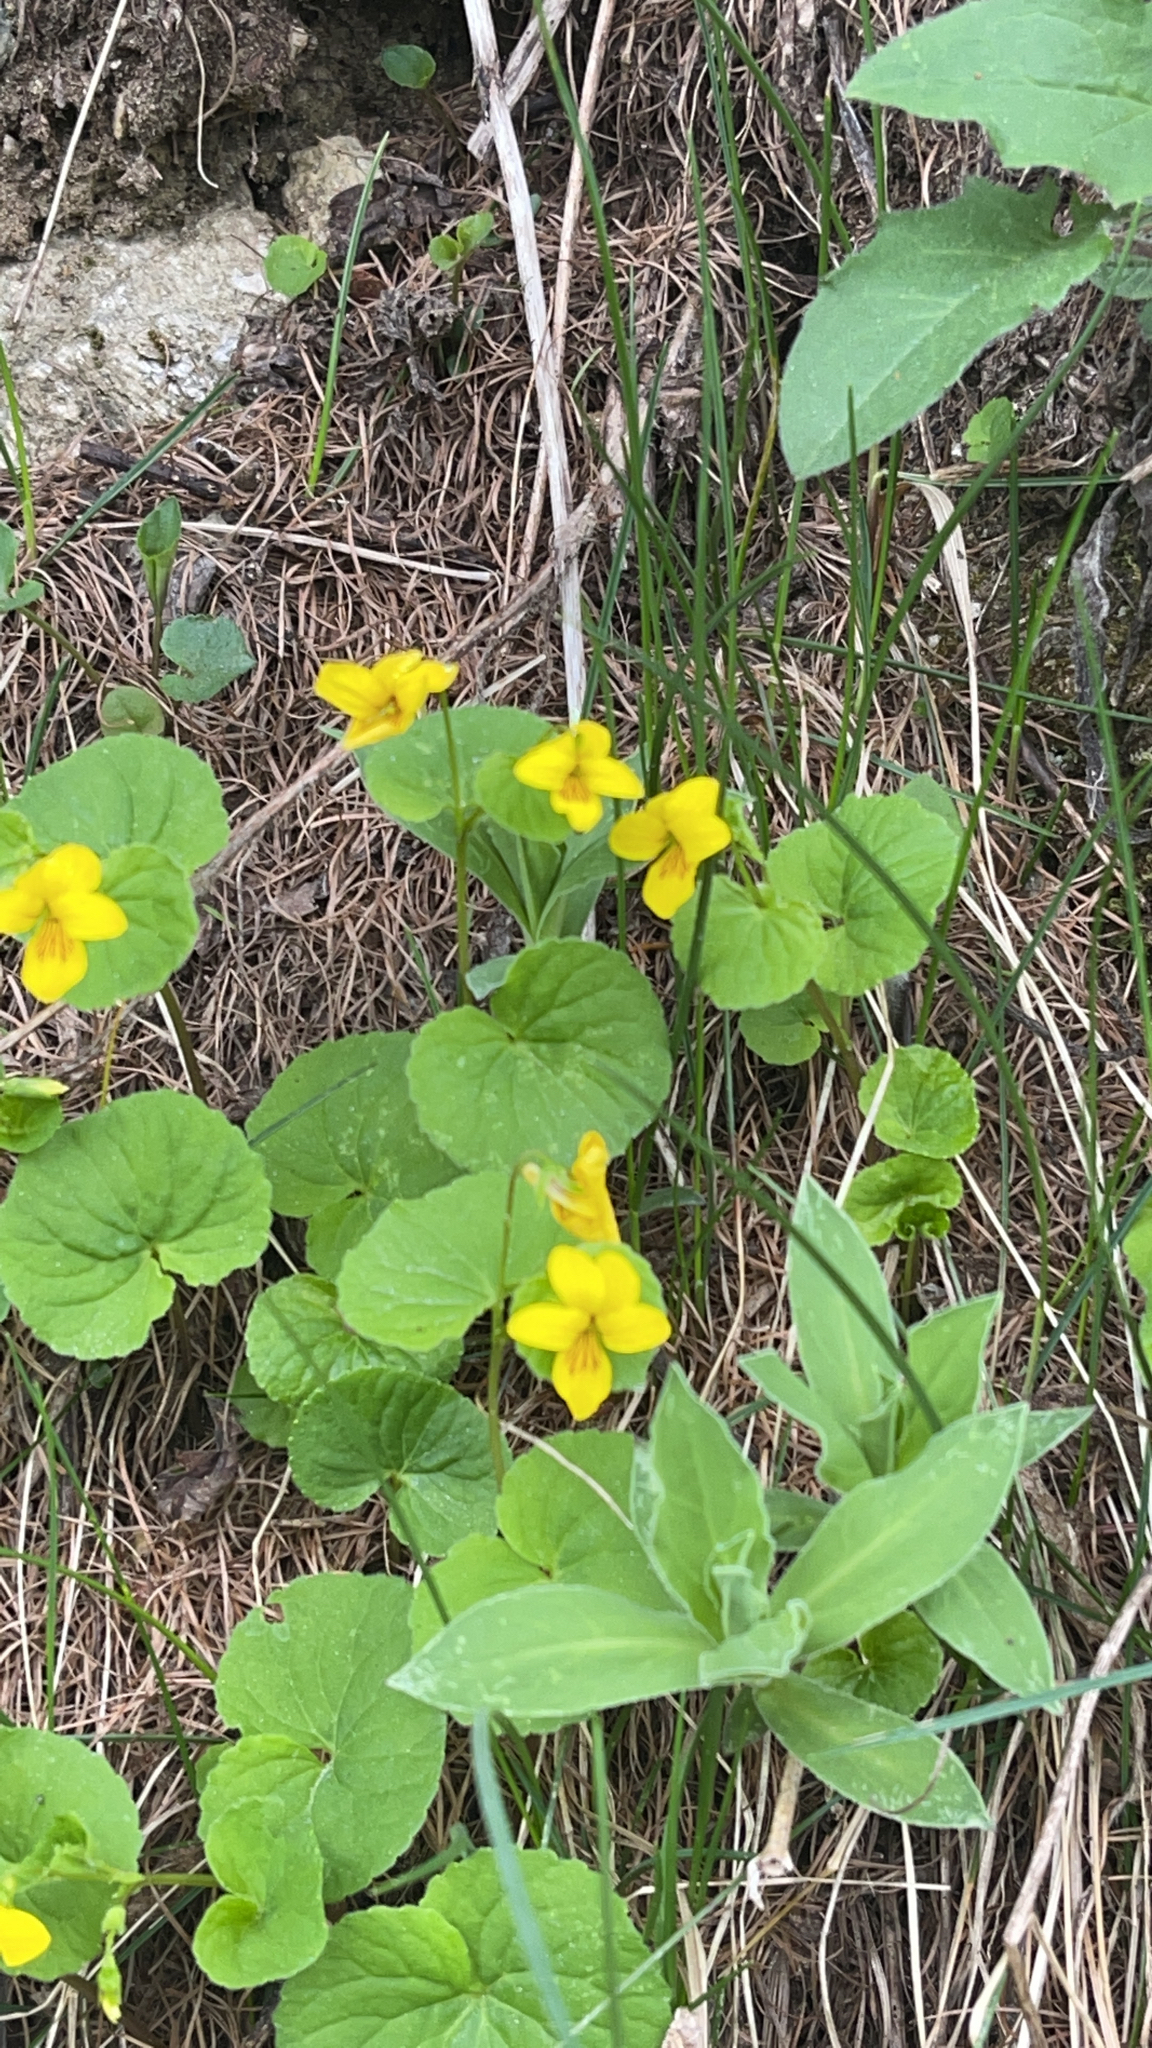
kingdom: Plantae
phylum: Tracheophyta
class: Magnoliopsida
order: Malpighiales
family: Violaceae
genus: Viola
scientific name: Viola biflora
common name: Alpine yellow violet
